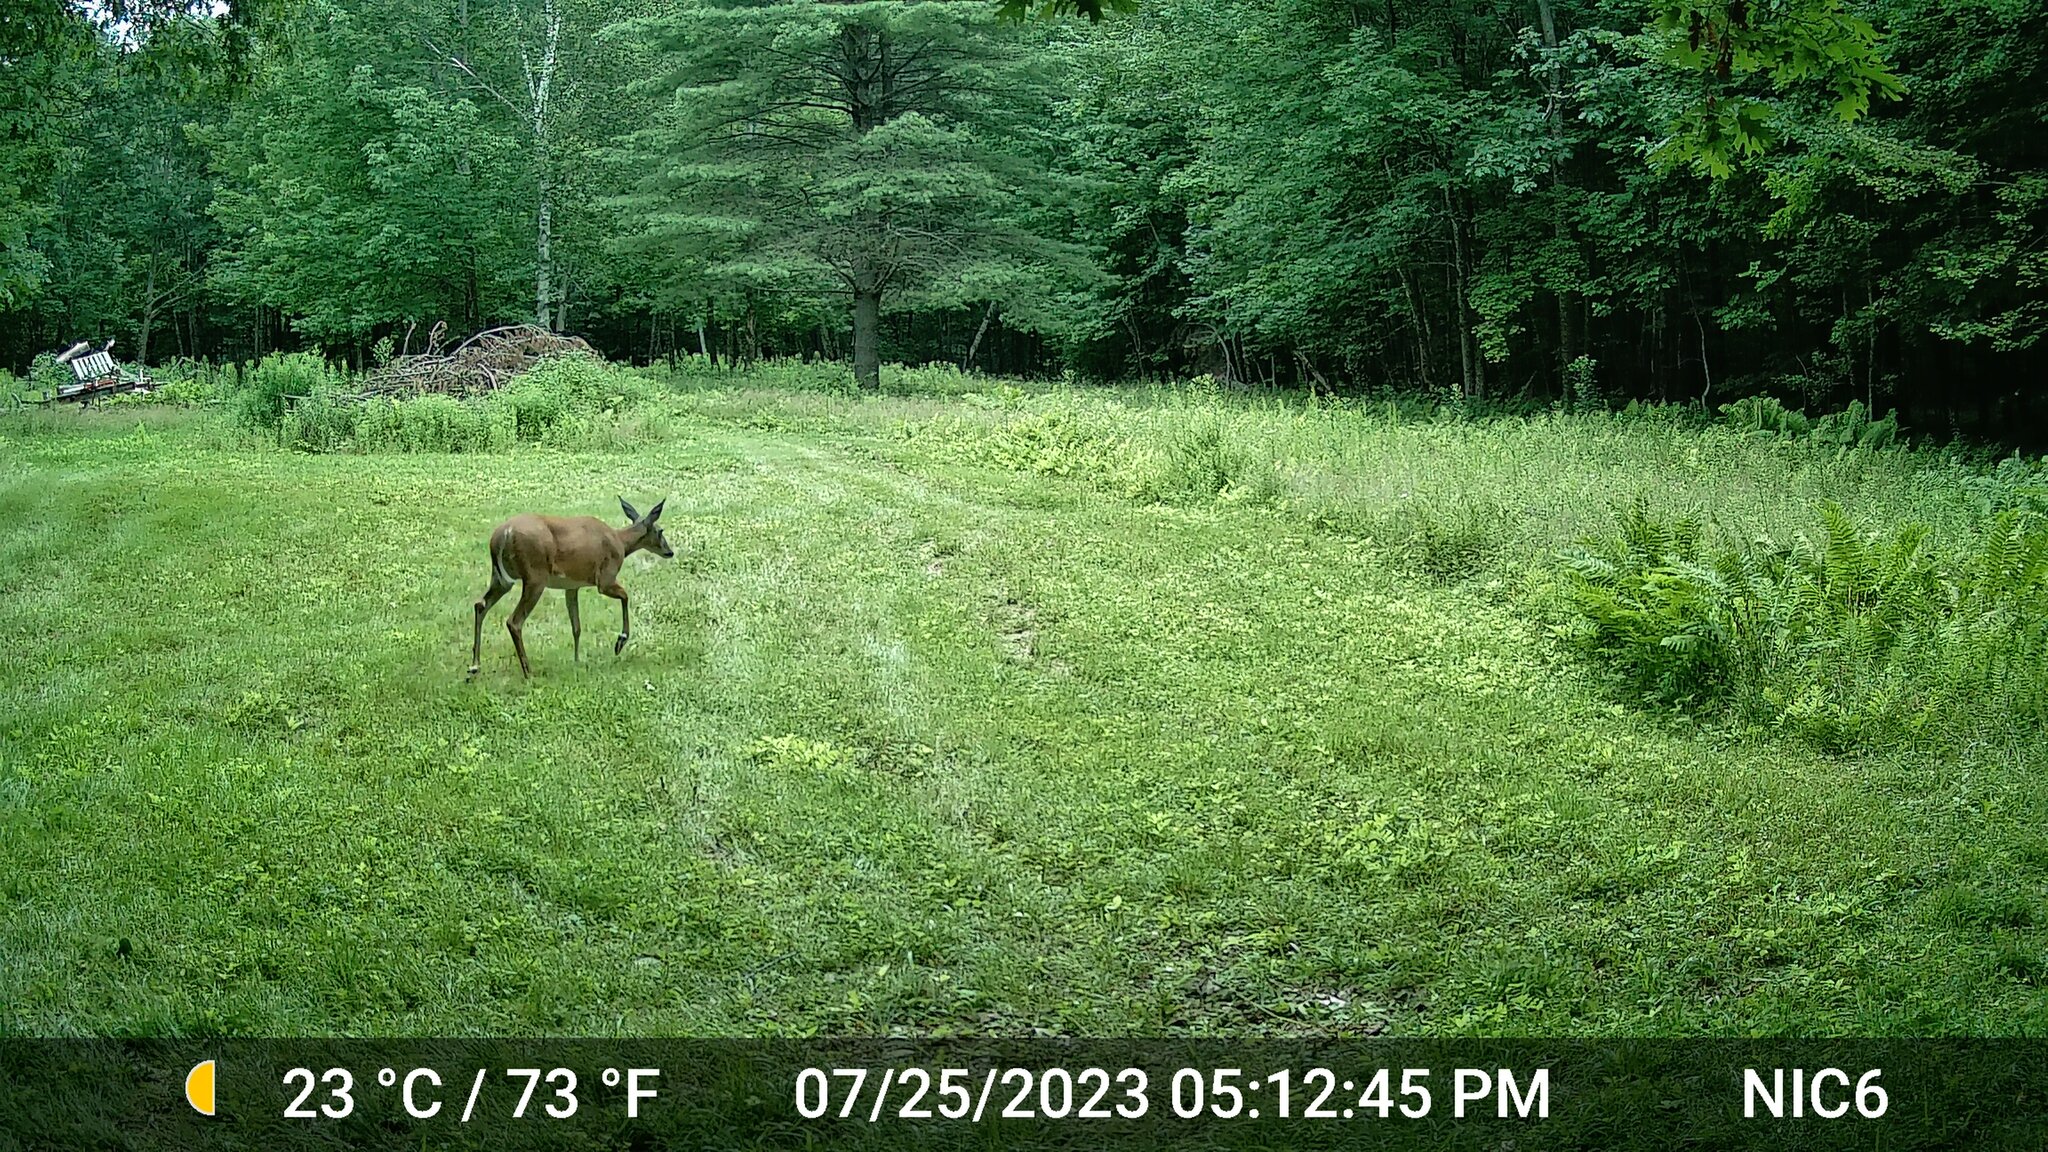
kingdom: Animalia
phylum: Chordata
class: Mammalia
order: Artiodactyla
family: Cervidae
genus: Odocoileus
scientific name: Odocoileus virginianus
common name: White-tailed deer
